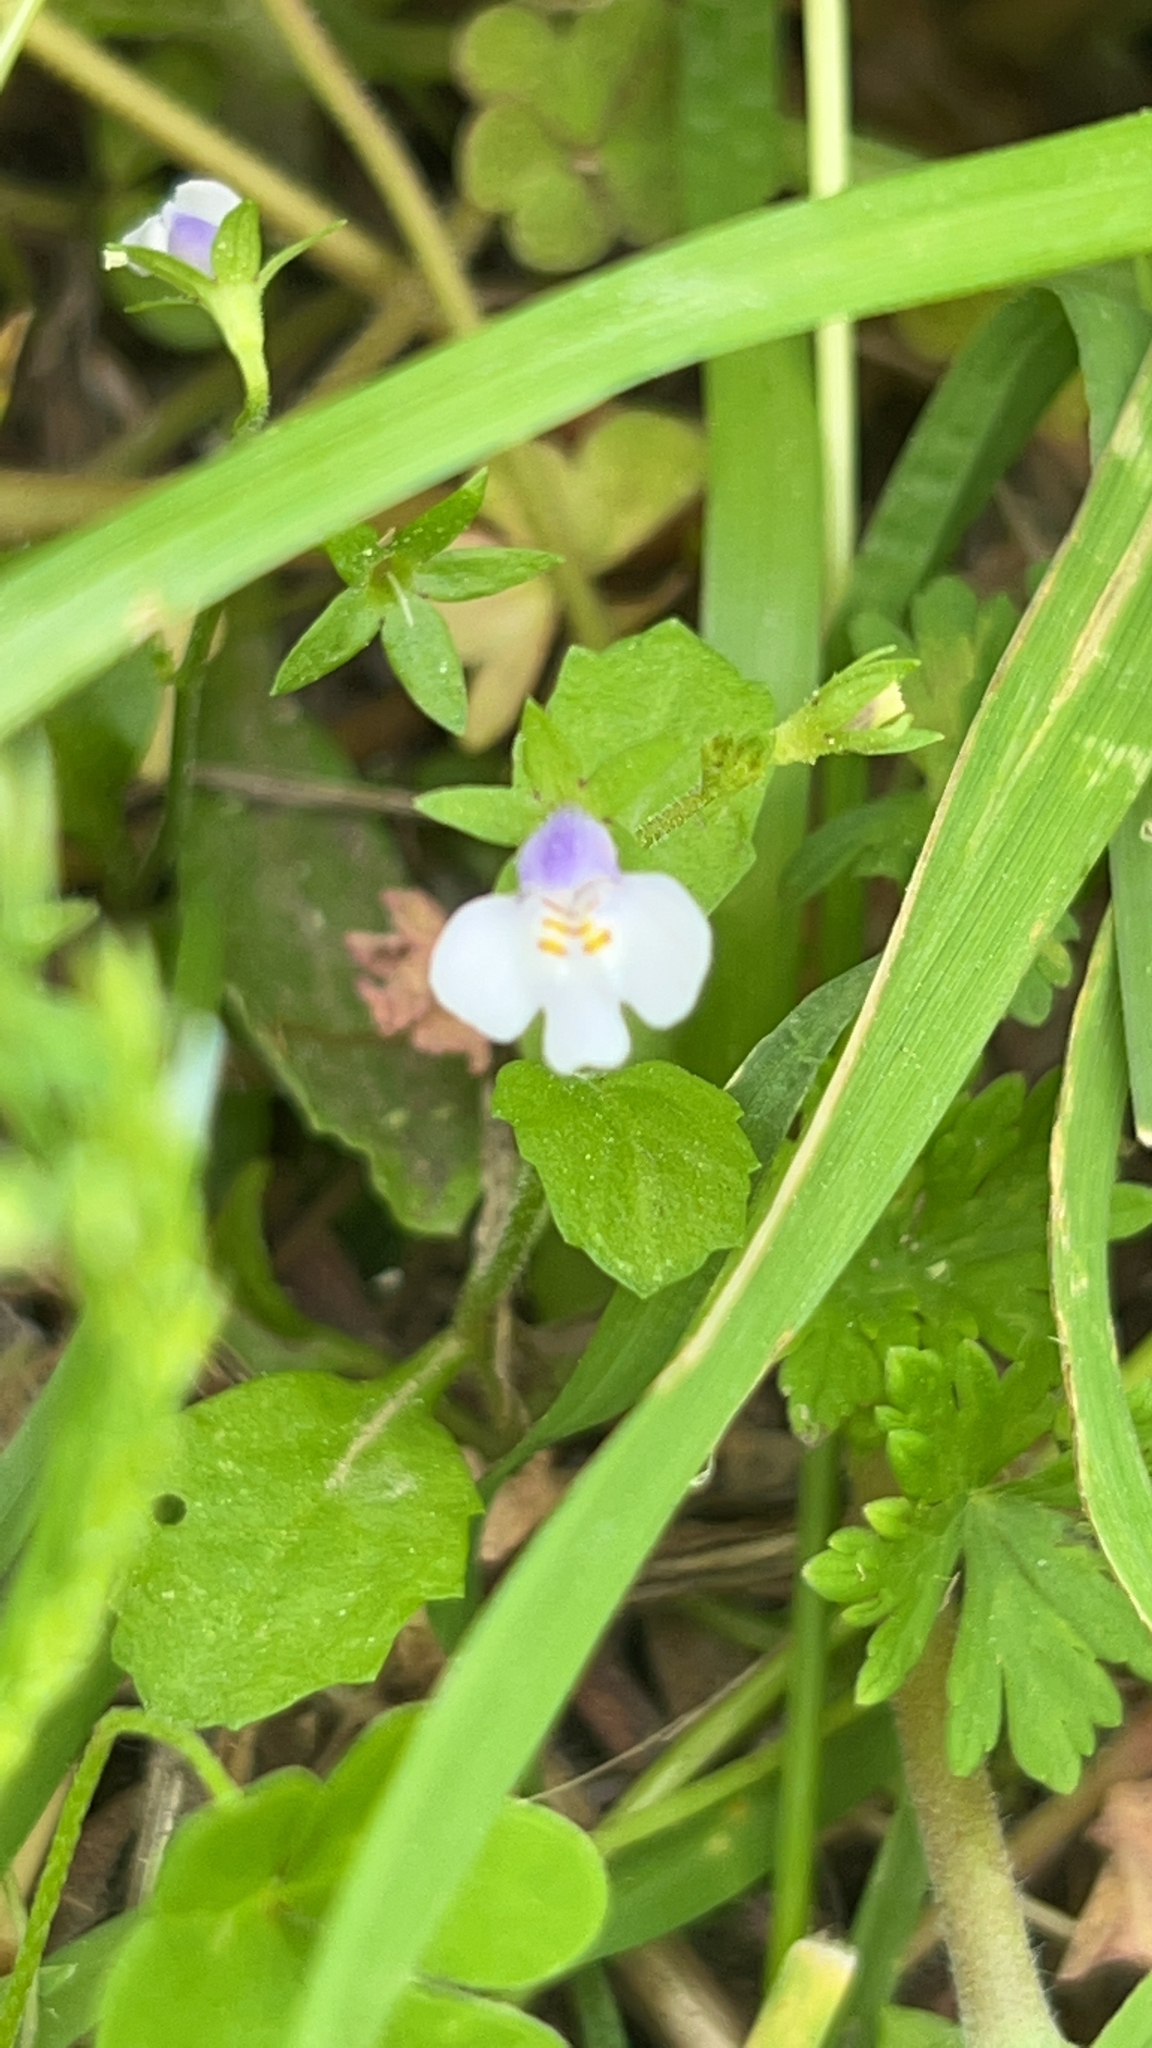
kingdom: Plantae
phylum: Tracheophyta
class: Magnoliopsida
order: Lamiales
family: Mazaceae
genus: Mazus
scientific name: Mazus pumilus
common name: Japanese mazus
